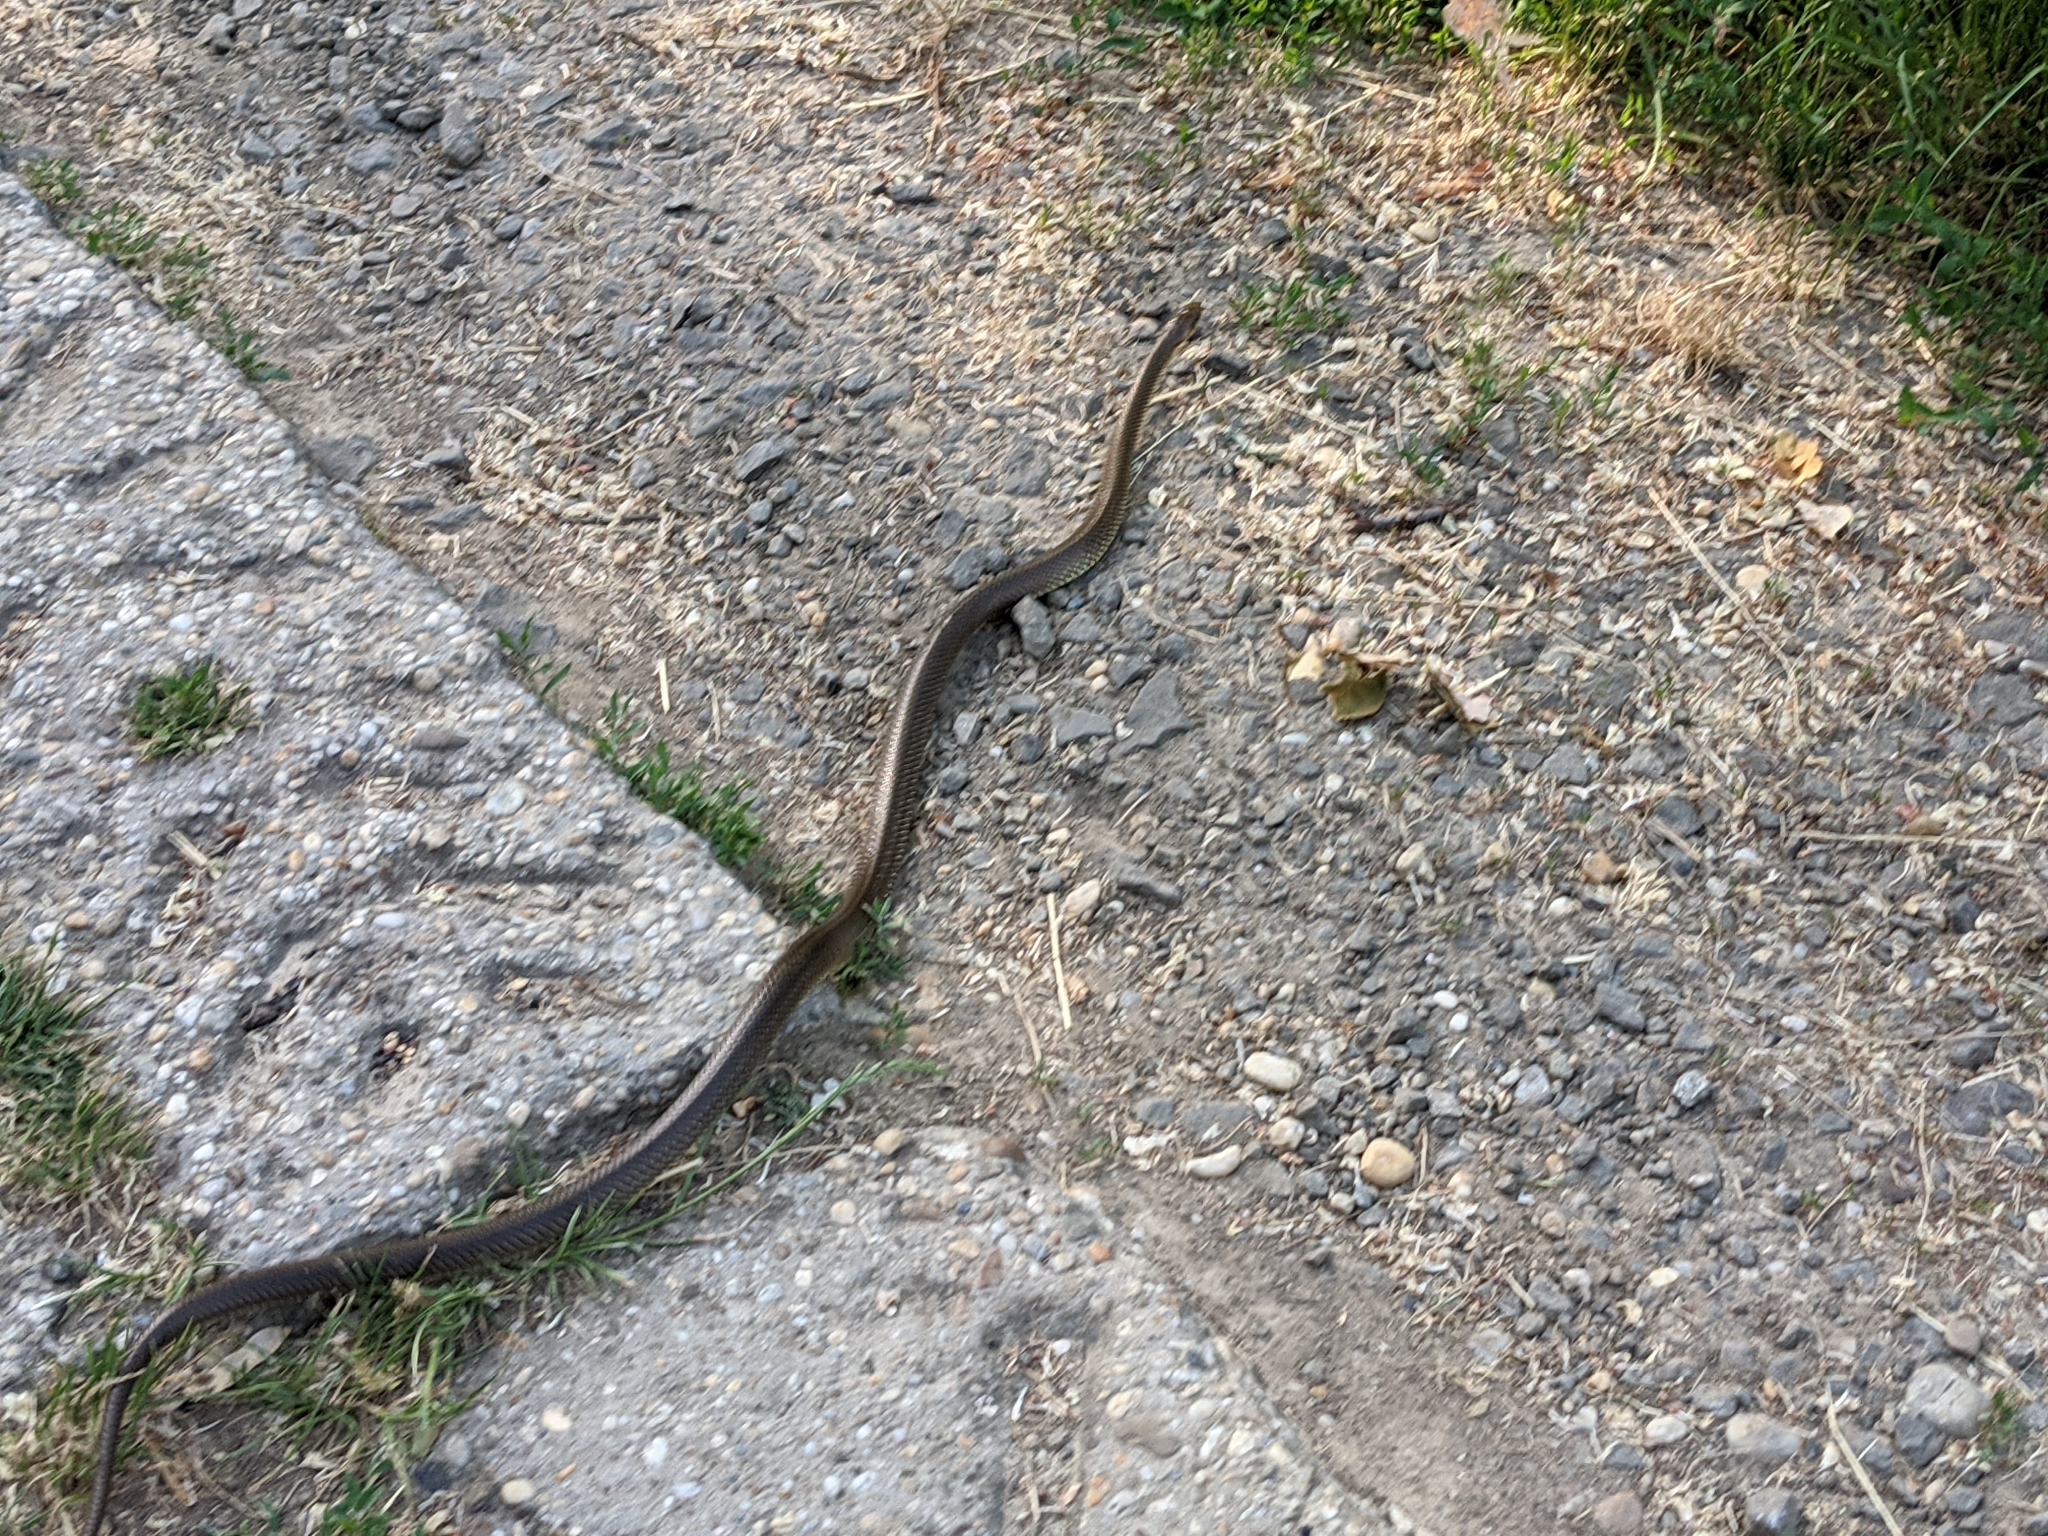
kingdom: Animalia
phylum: Chordata
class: Squamata
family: Colubridae
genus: Zamenis
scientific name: Zamenis longissimus
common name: Aesculapean snake
